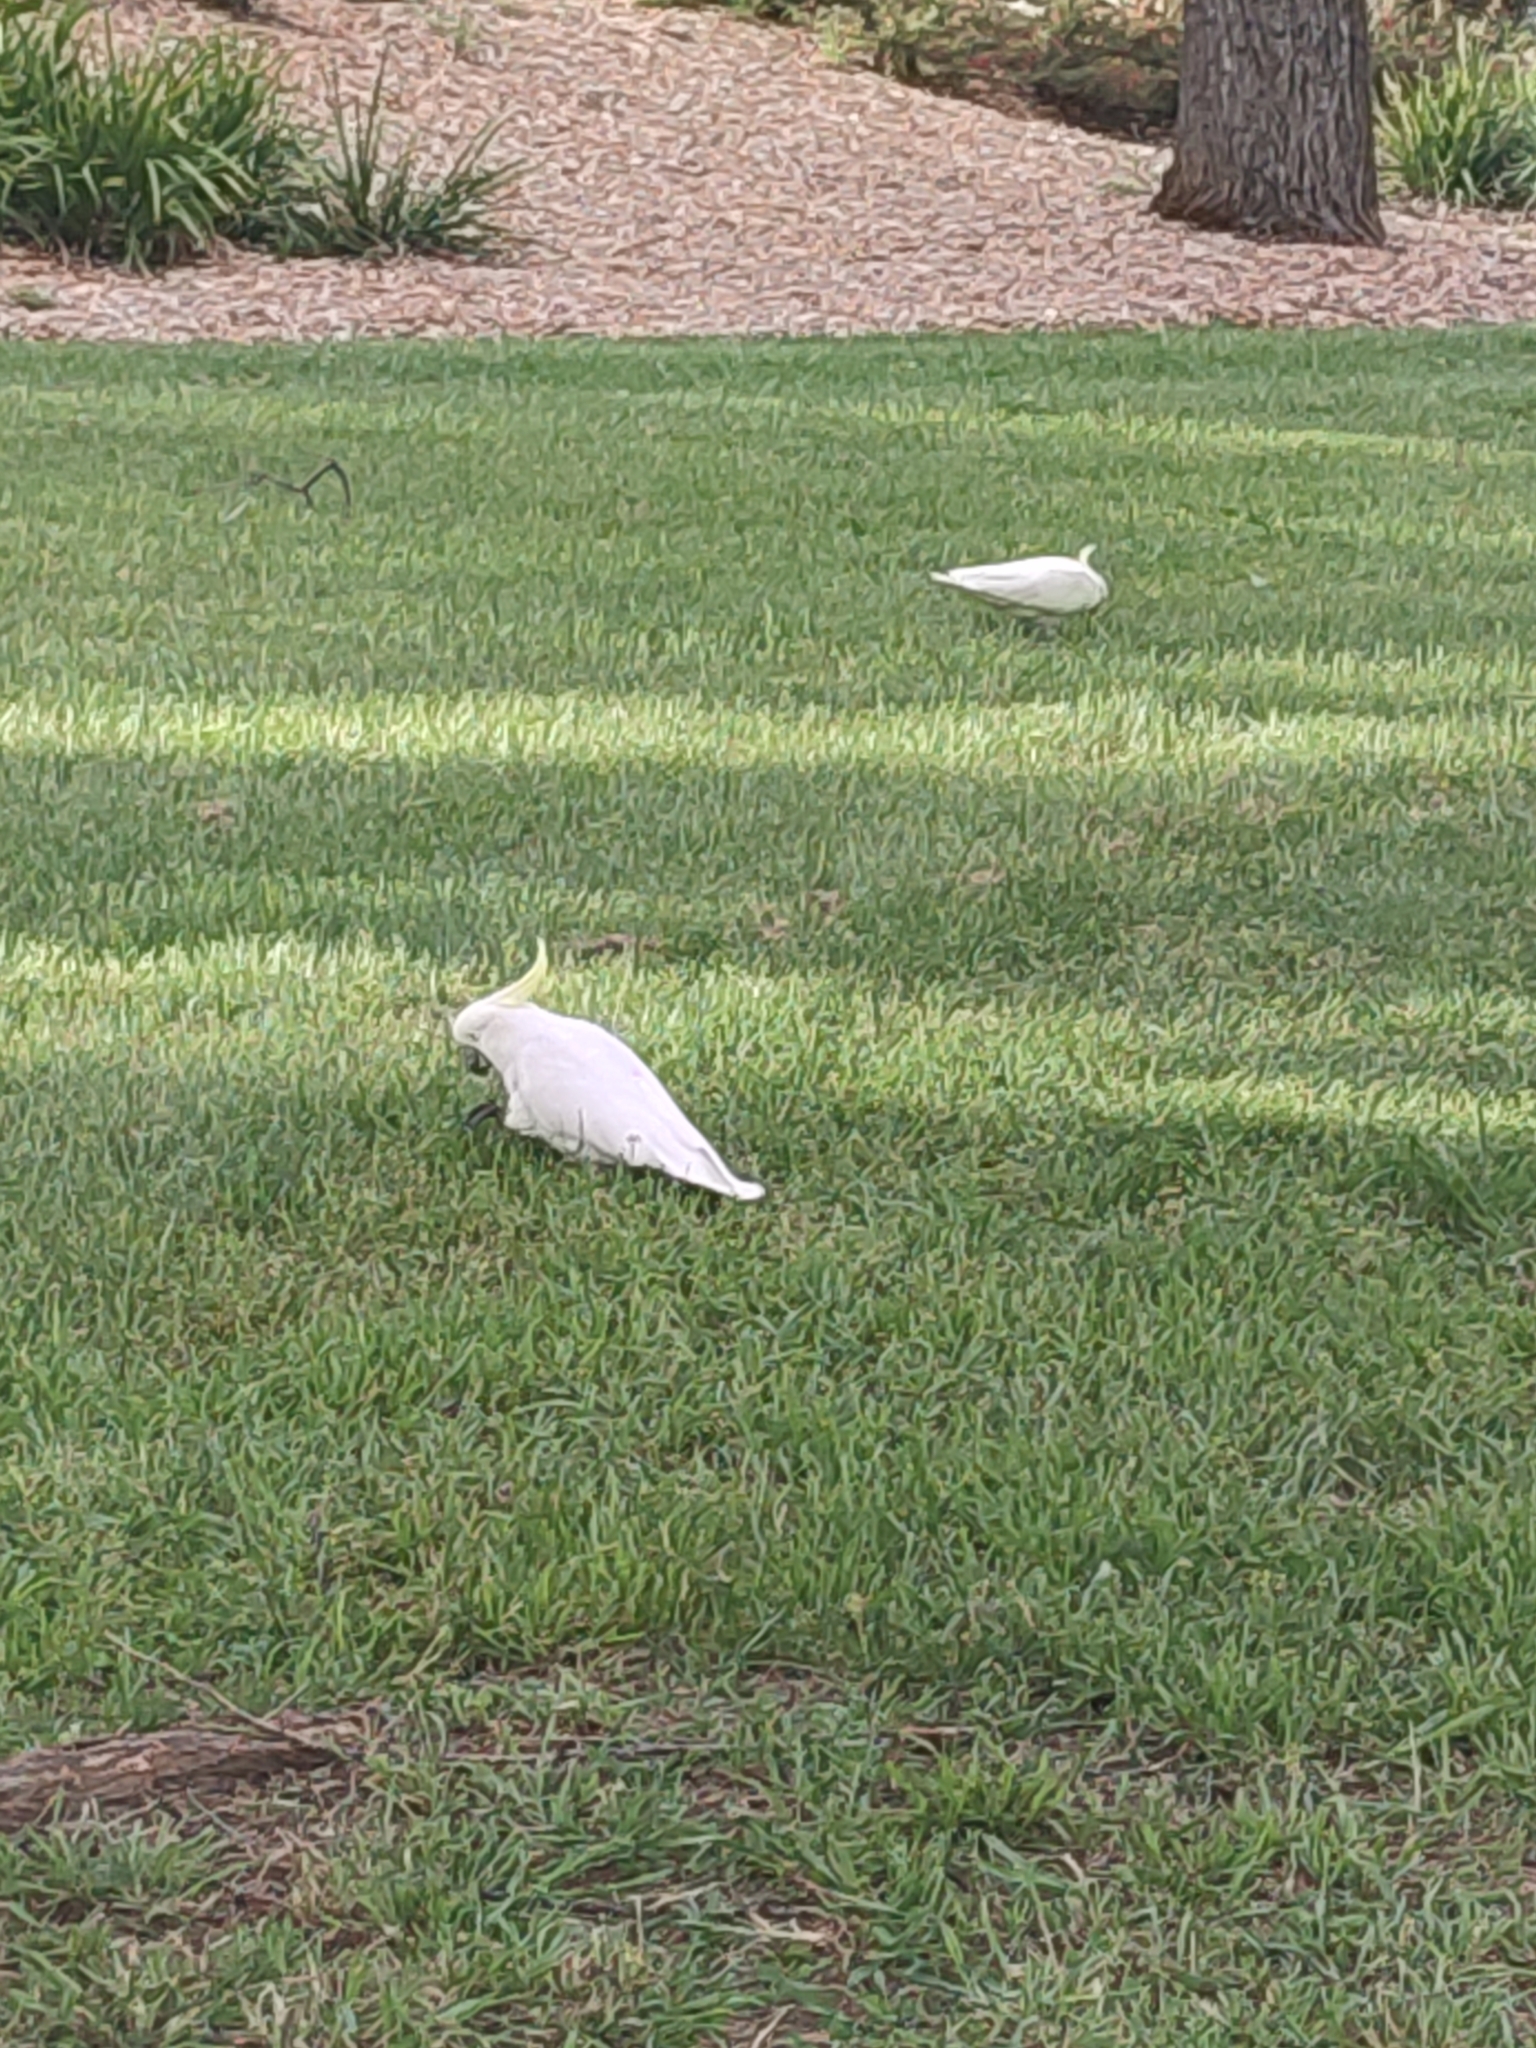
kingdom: Animalia
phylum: Chordata
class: Aves
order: Psittaciformes
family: Psittacidae
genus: Cacatua
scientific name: Cacatua galerita
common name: Sulphur-crested cockatoo
